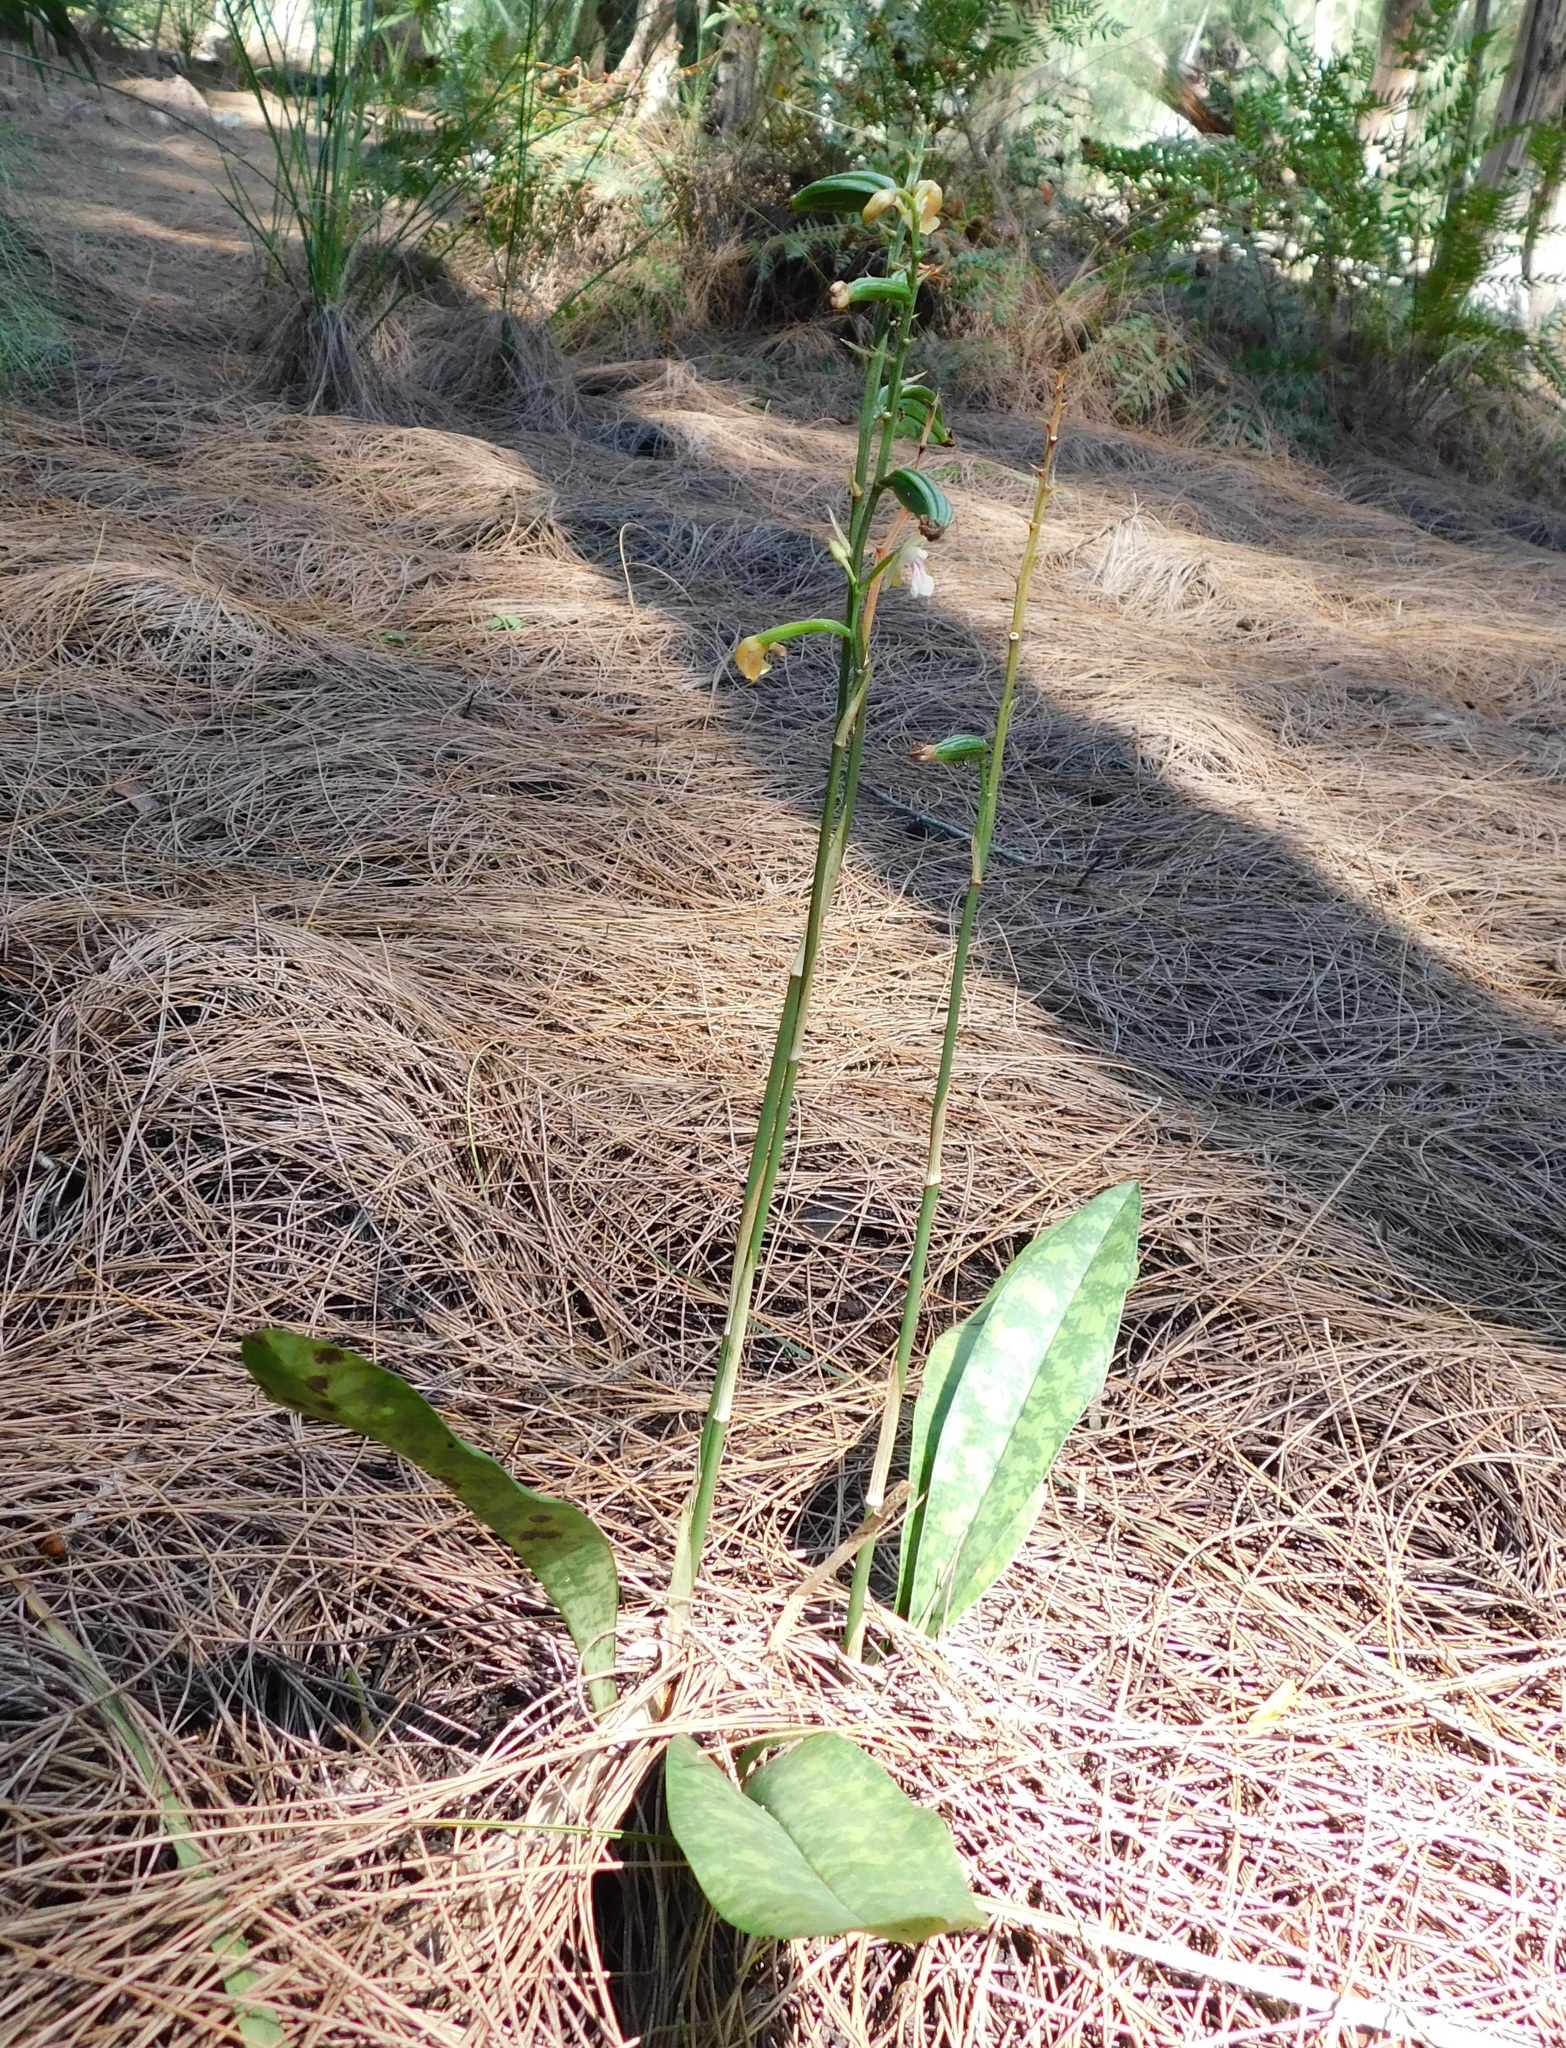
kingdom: Plantae
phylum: Tracheophyta
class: Liliopsida
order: Asparagales
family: Orchidaceae
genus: Eulophia
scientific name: Eulophia maculata
